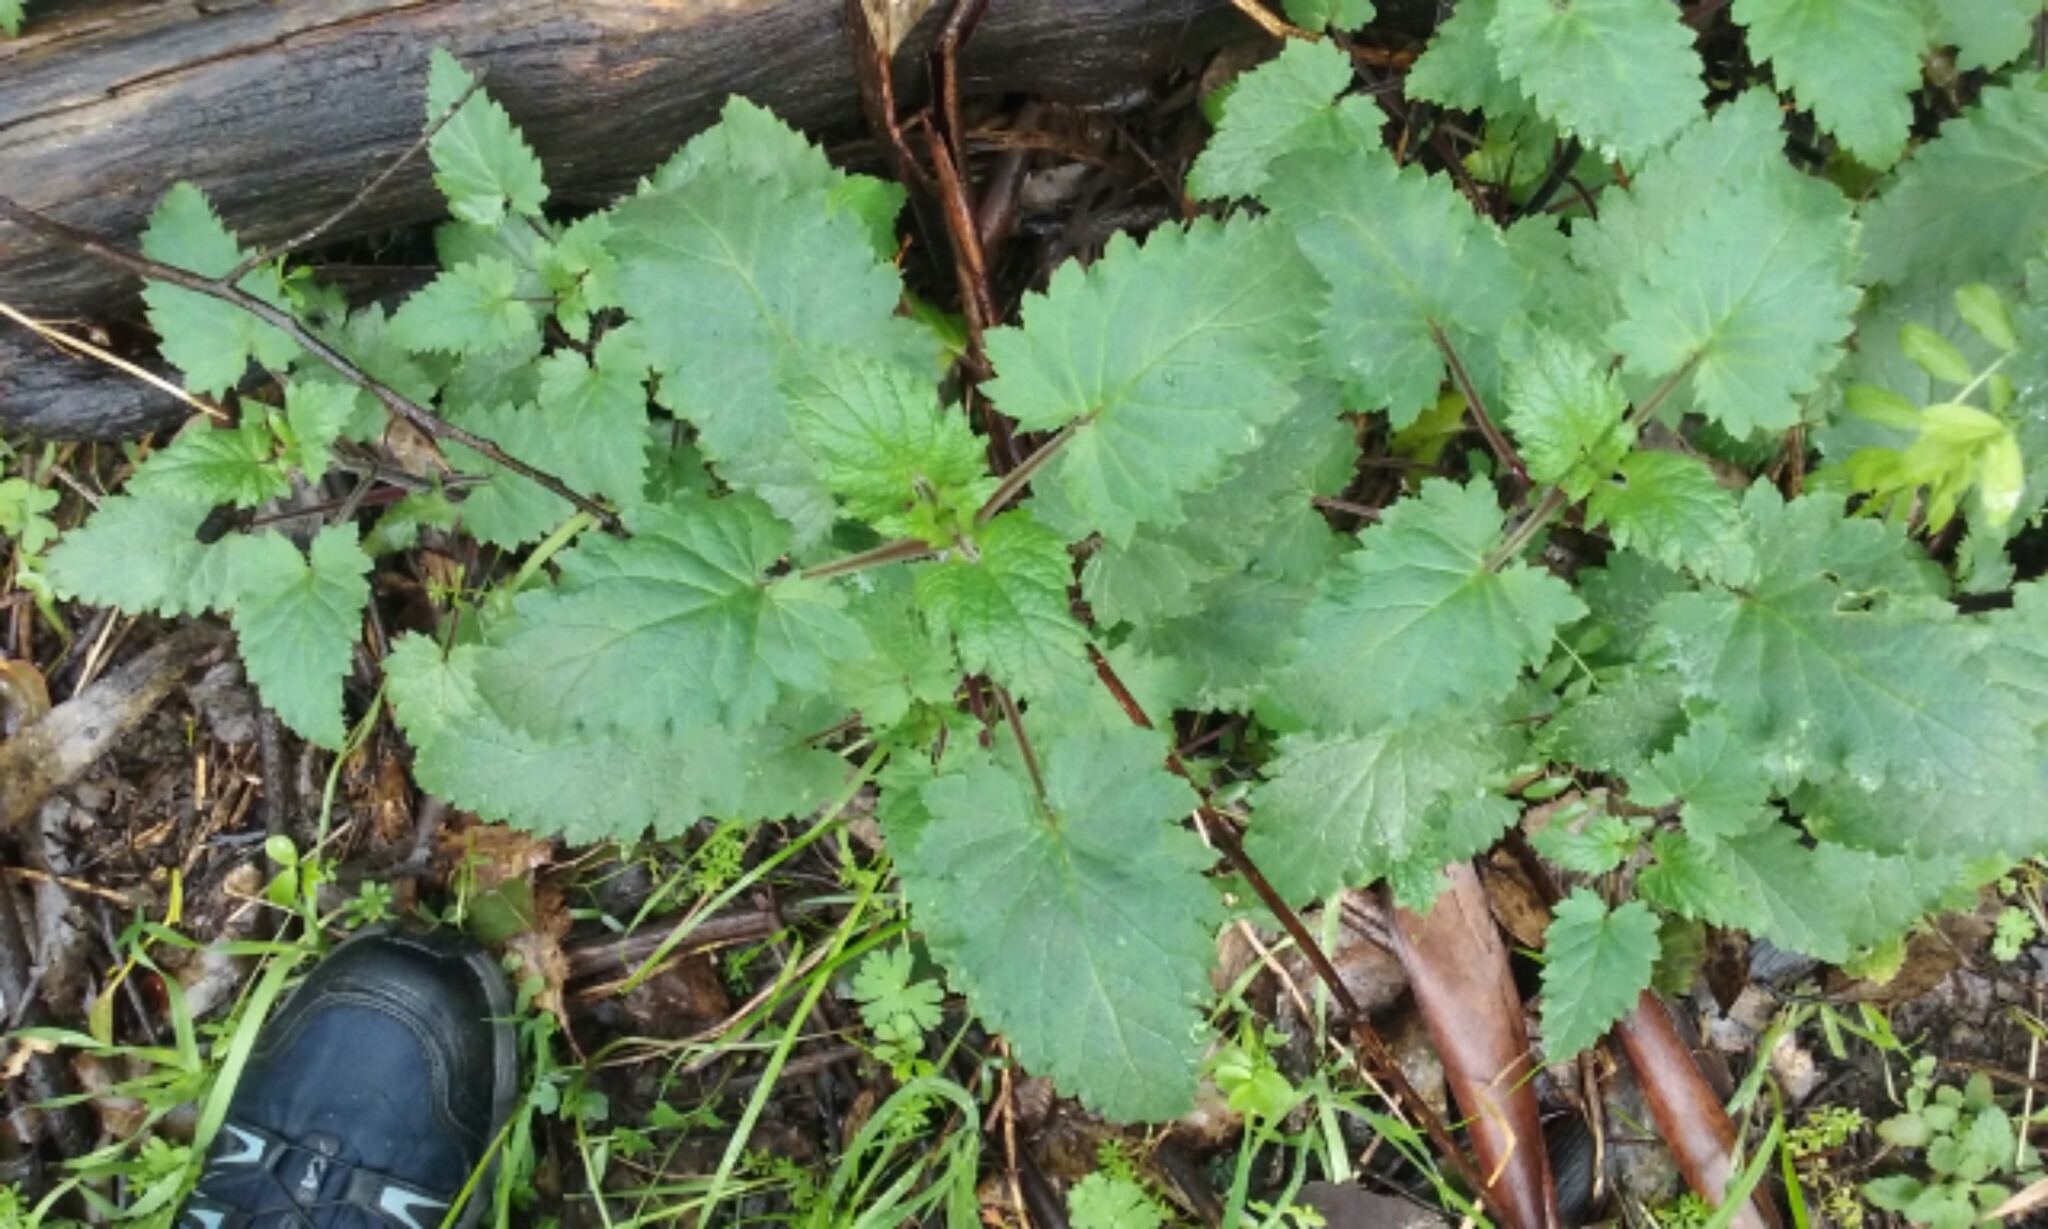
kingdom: Plantae
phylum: Tracheophyta
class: Magnoliopsida
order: Lamiales
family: Scrophulariaceae
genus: Scrophularia
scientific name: Scrophularia californica
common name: California figwort
